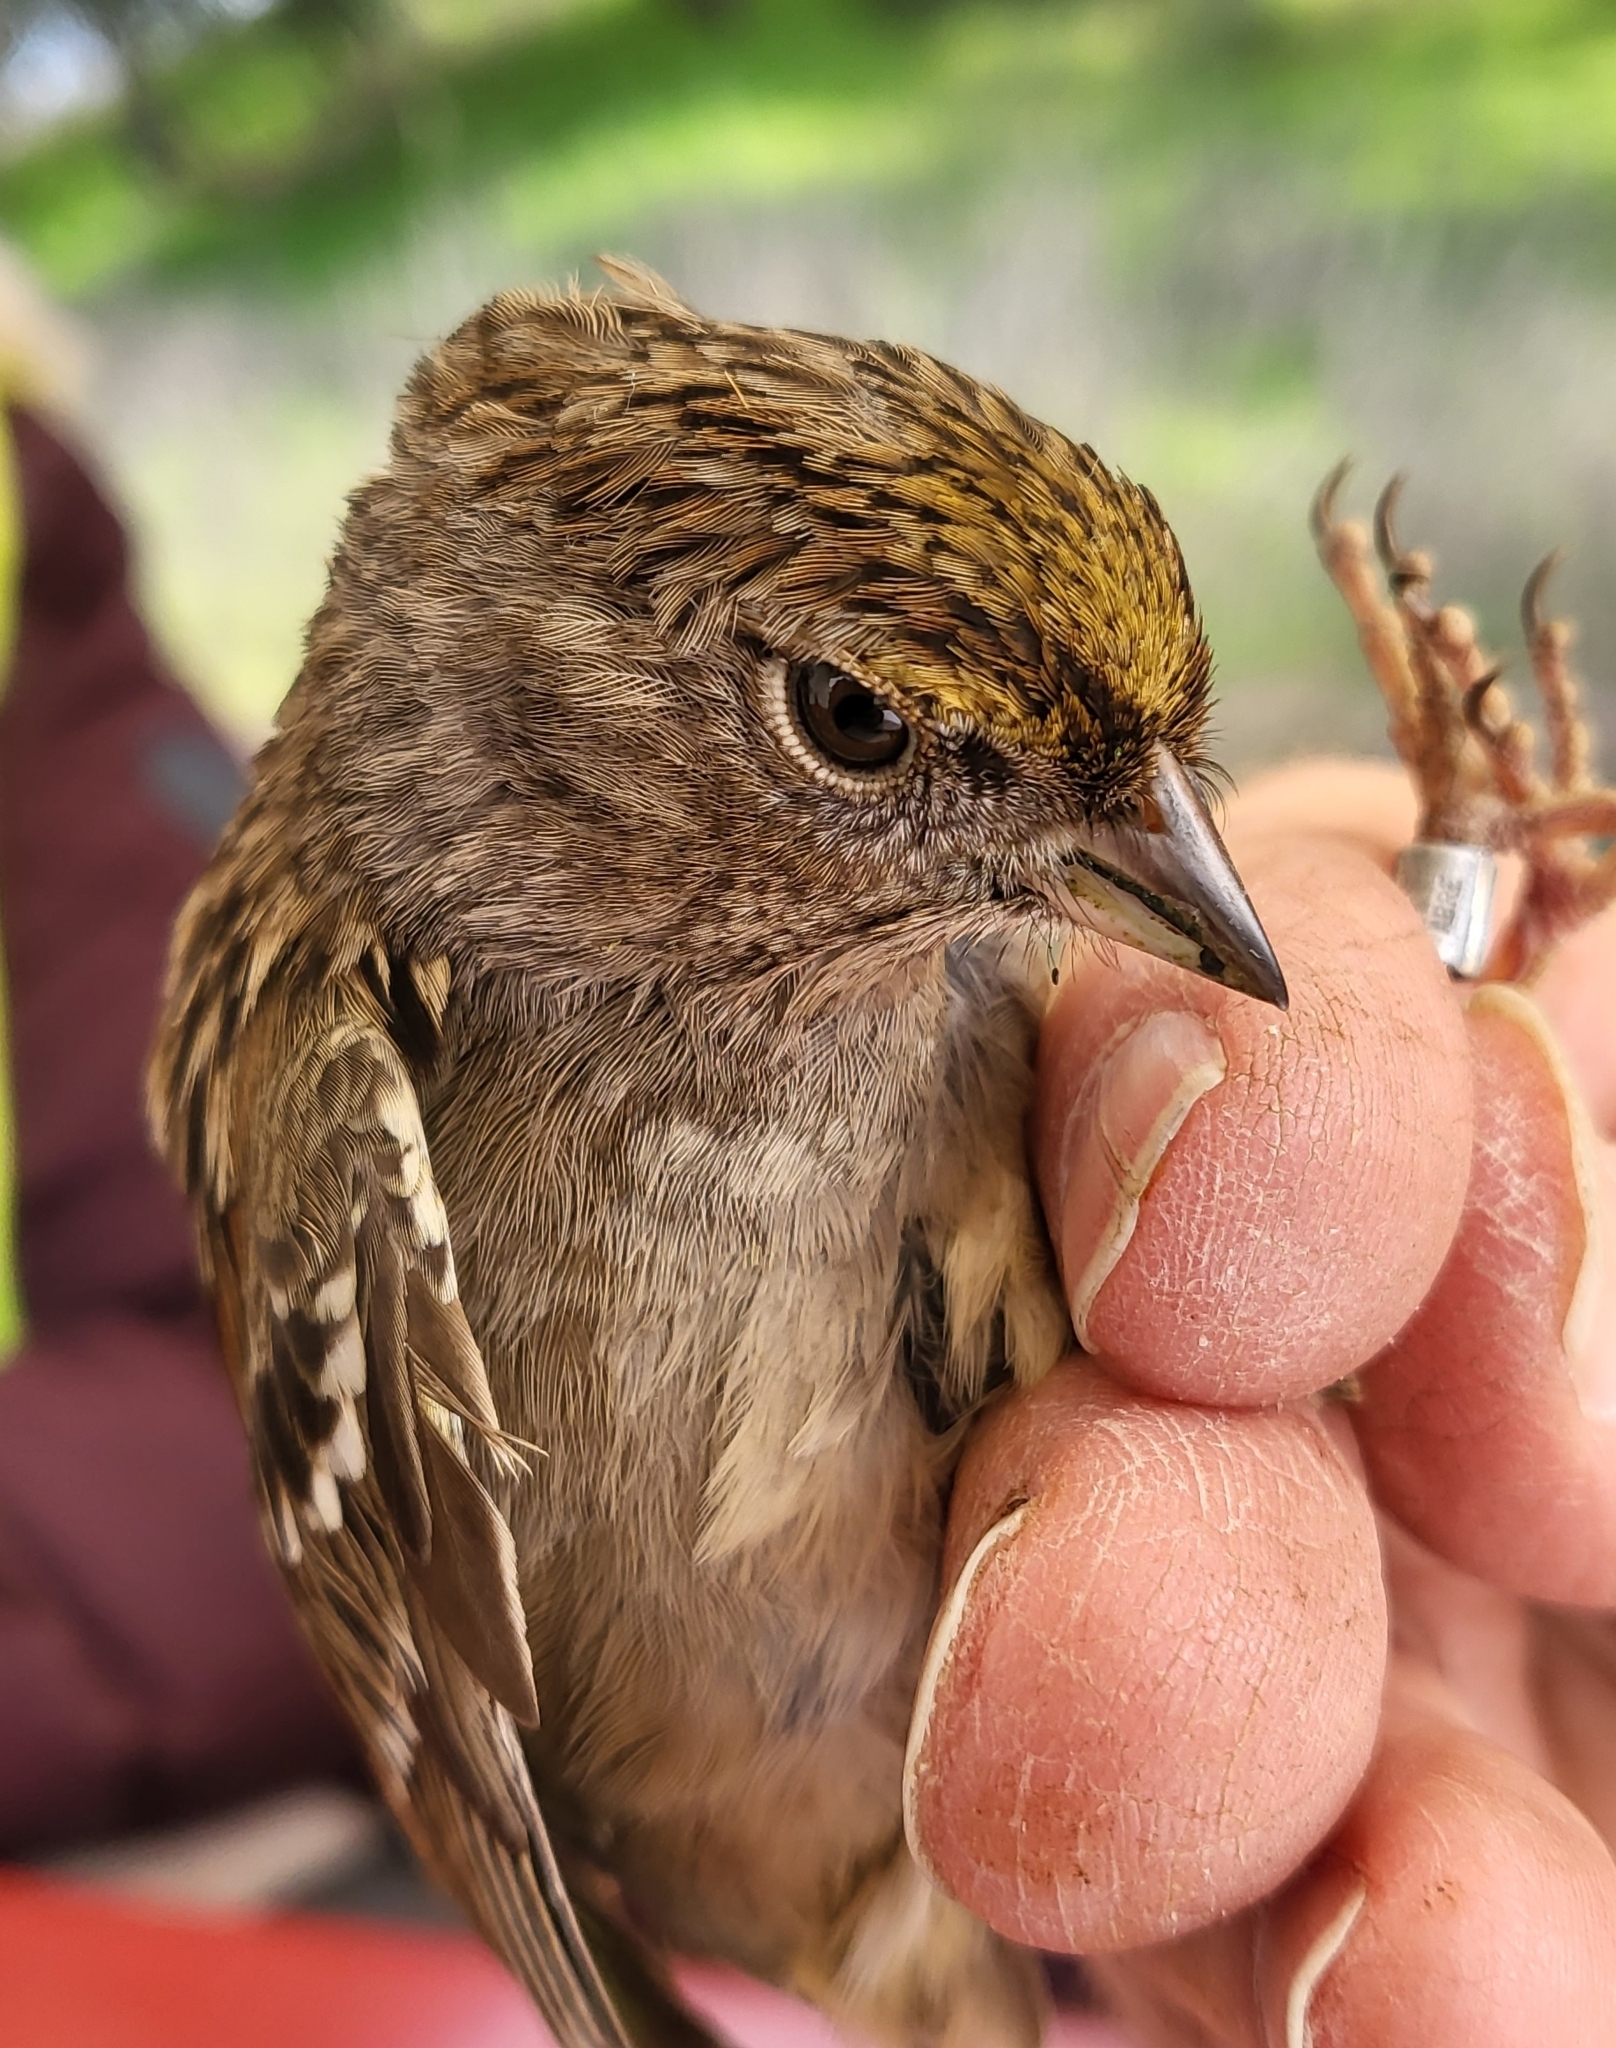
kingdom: Animalia
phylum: Chordata
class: Aves
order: Passeriformes
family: Passerellidae
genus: Zonotrichia
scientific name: Zonotrichia atricapilla
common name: Golden-crowned sparrow
